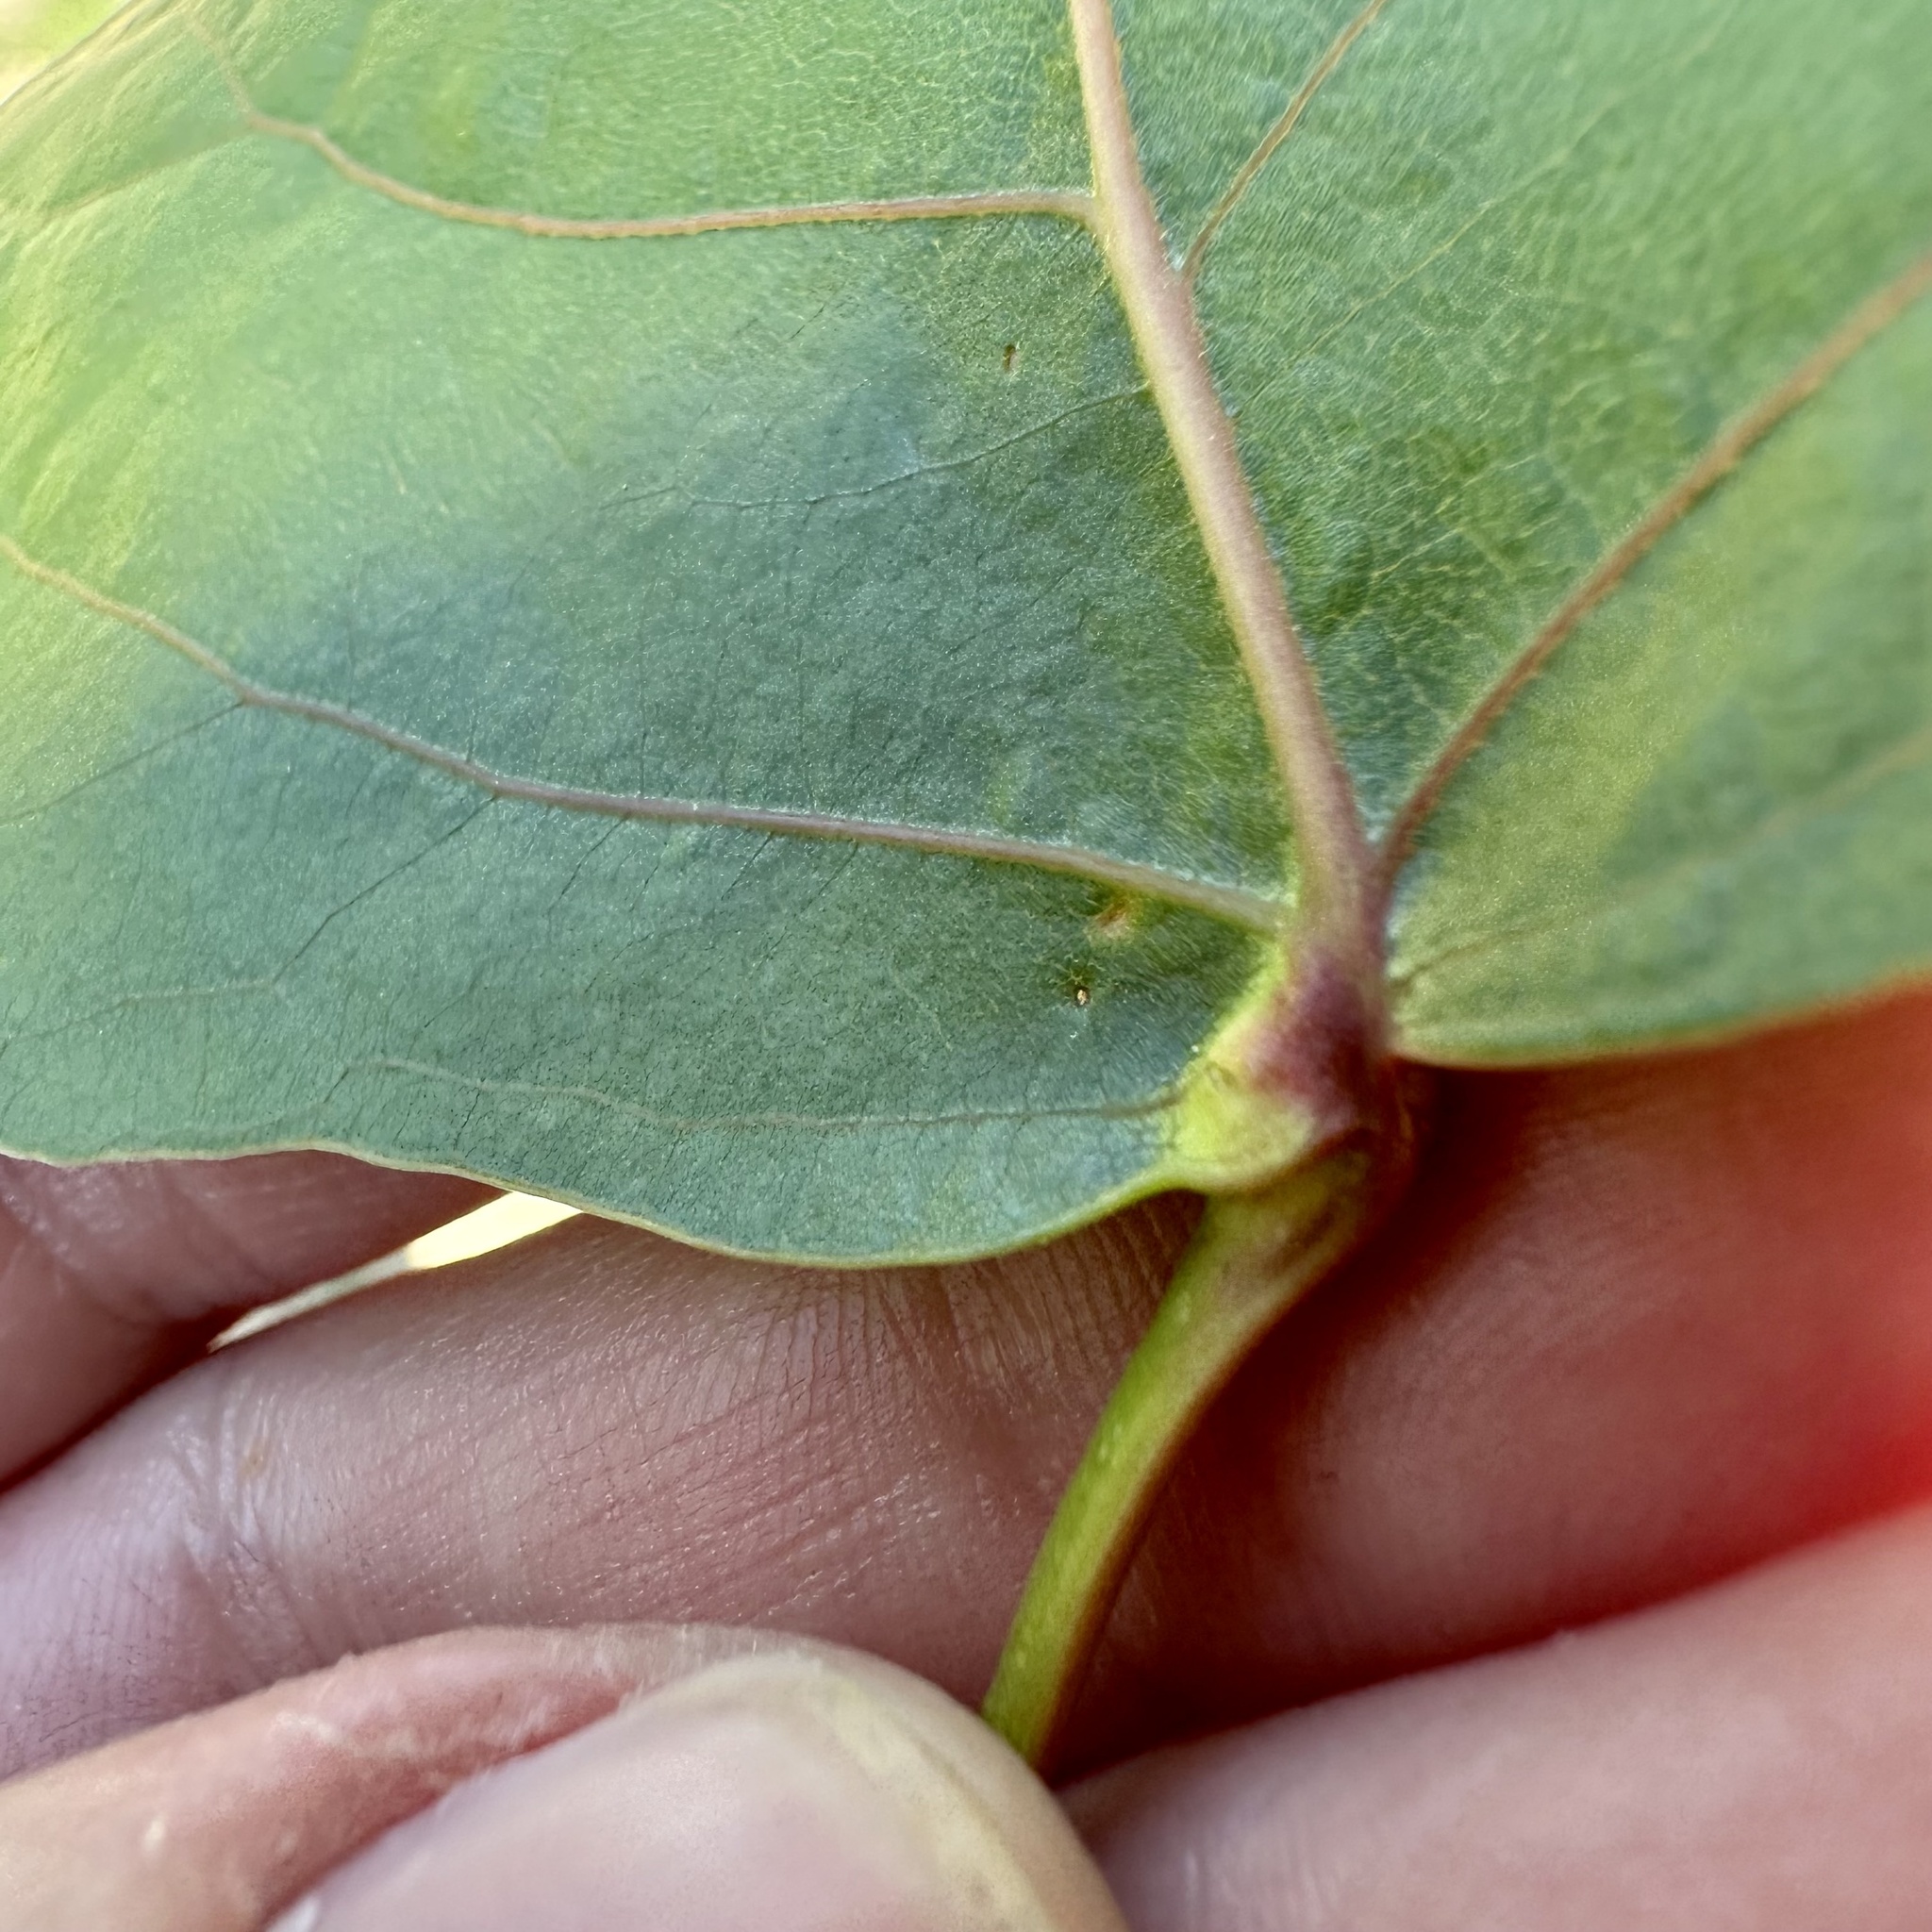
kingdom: Animalia
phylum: Arthropoda
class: Insecta
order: Hemiptera
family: Aphididae
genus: Pemphigus
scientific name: Pemphigus populicaulis
